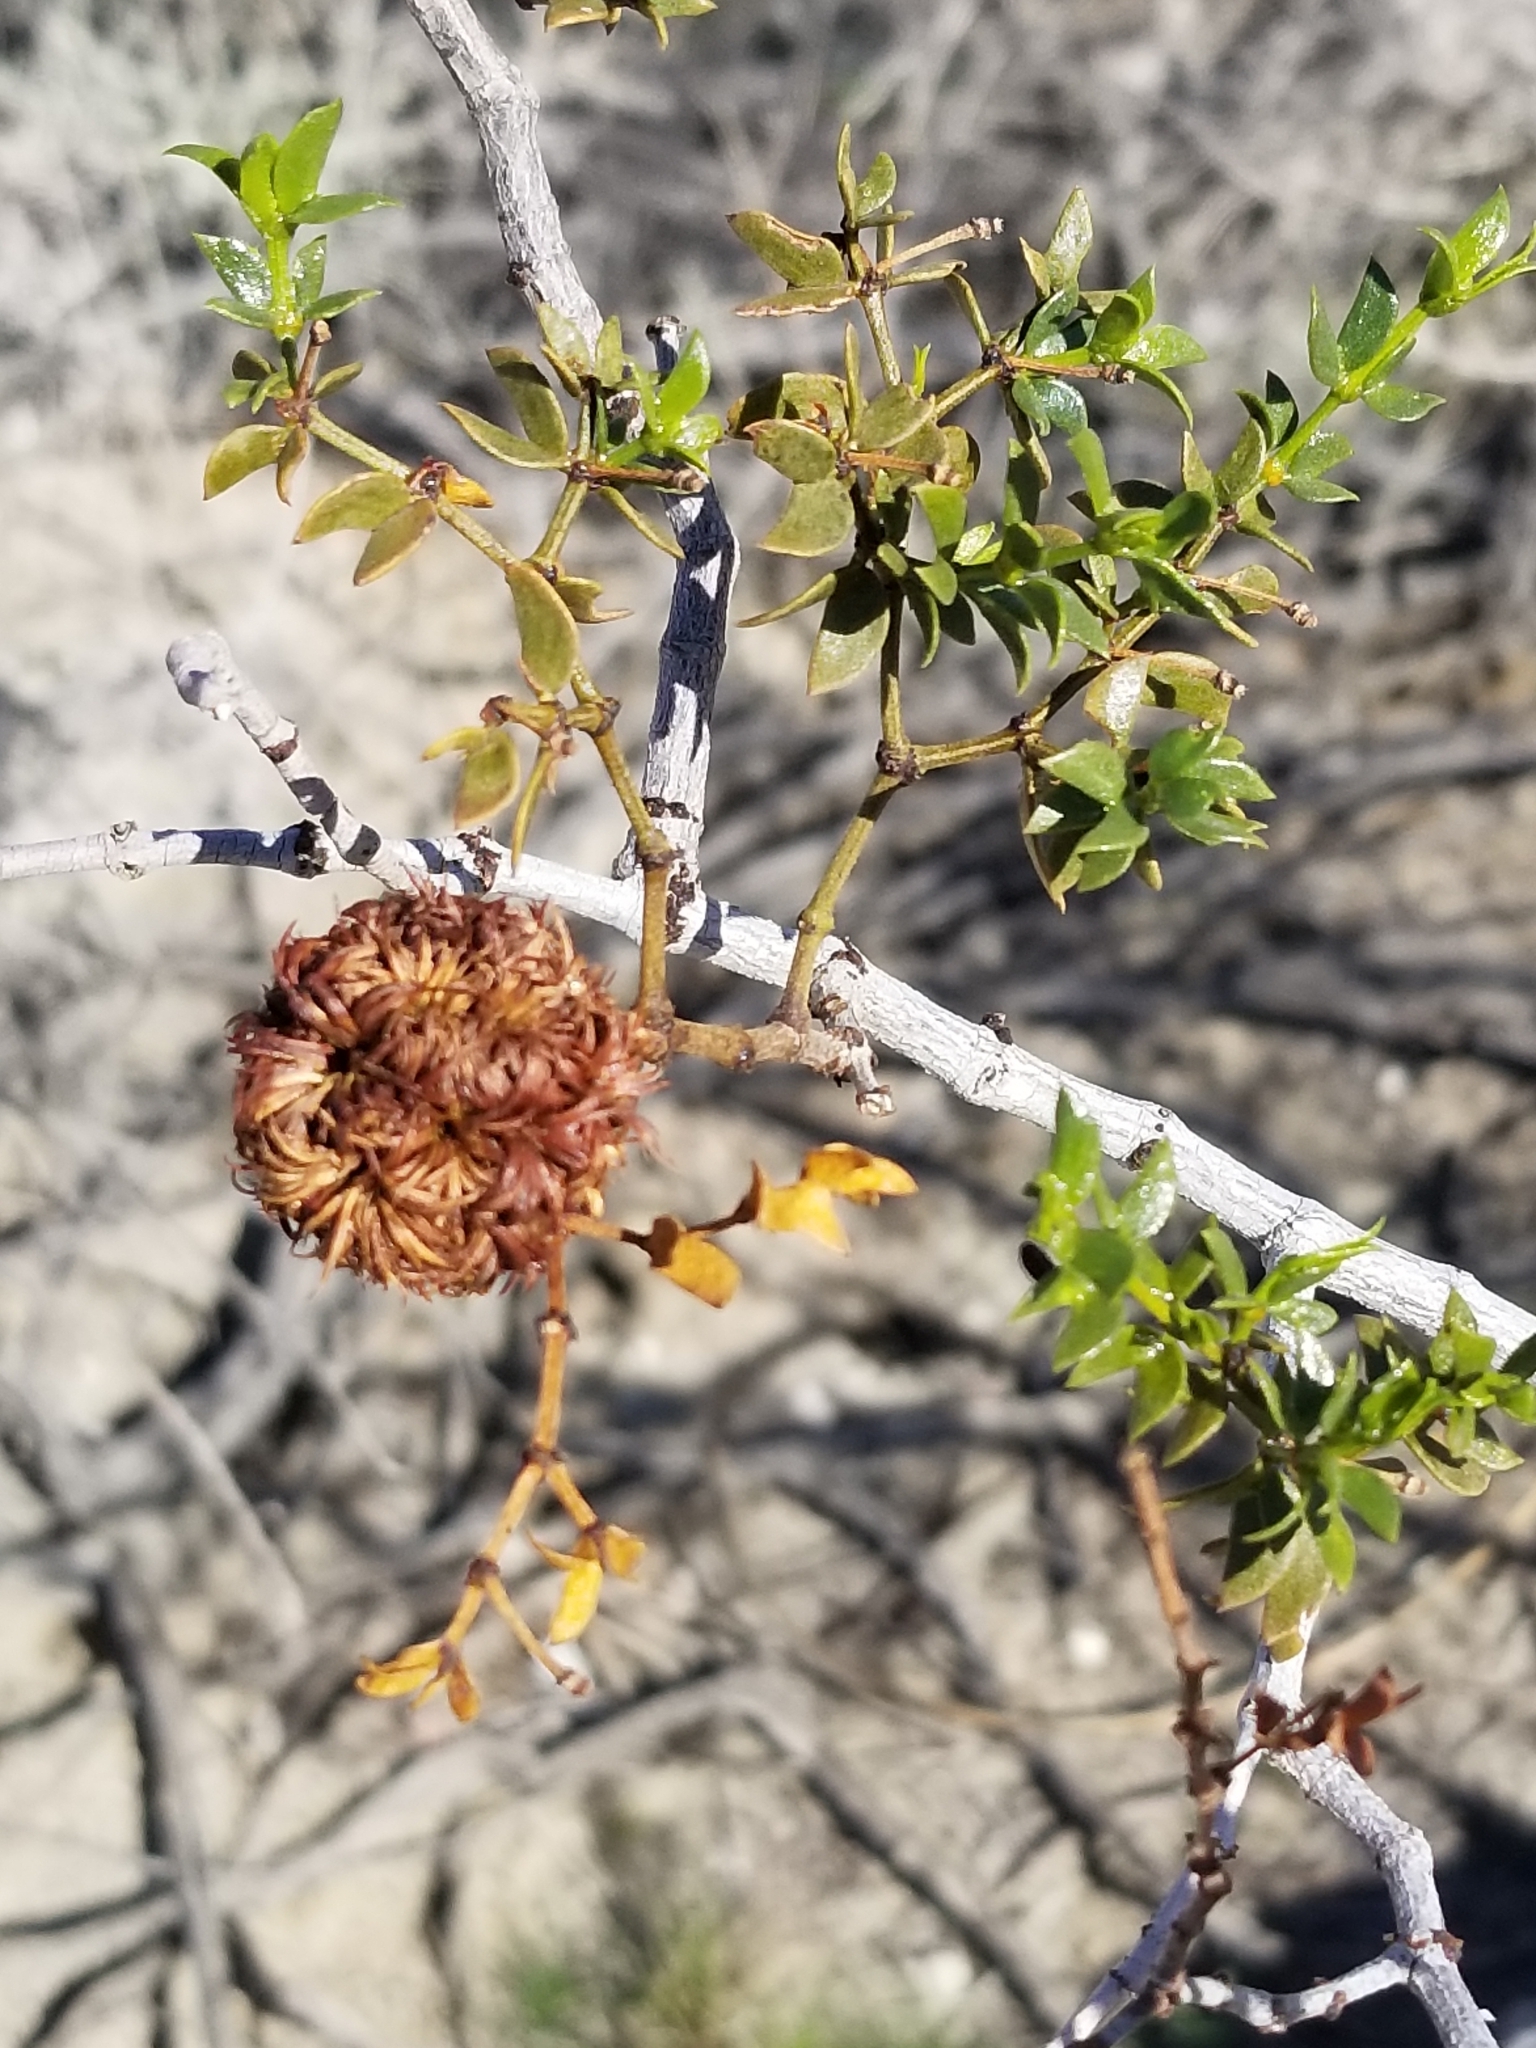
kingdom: Animalia
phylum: Arthropoda
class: Insecta
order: Diptera
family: Cecidomyiidae
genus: Asphondylia
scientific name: Asphondylia auripila
